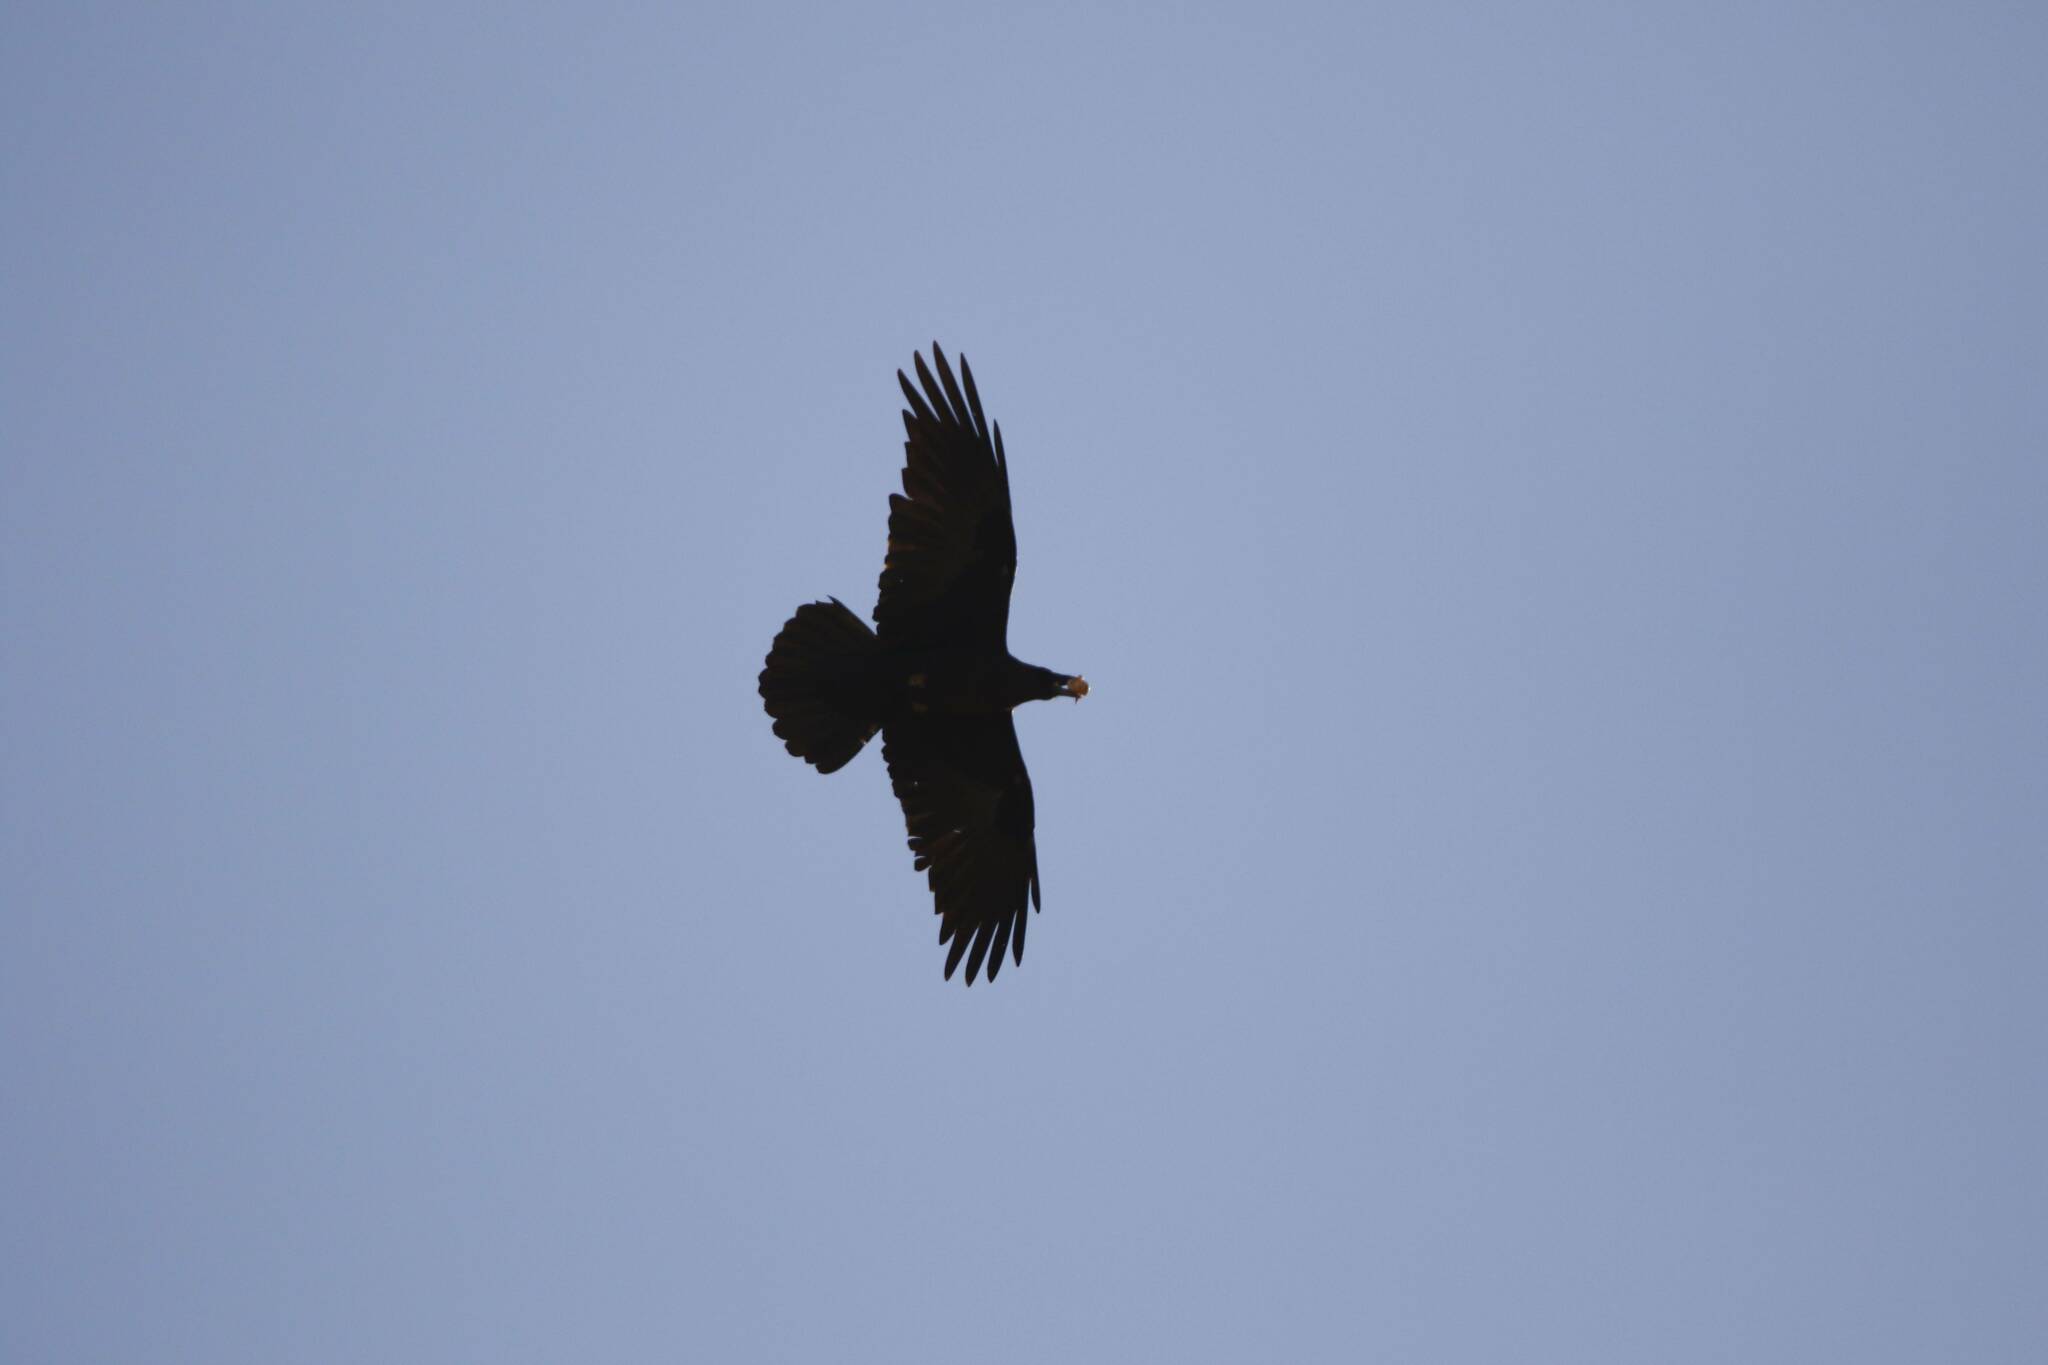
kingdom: Animalia
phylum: Chordata
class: Aves
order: Passeriformes
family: Corvidae
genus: Corvus
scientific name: Corvus ruficollis
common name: Brown-necked raven
